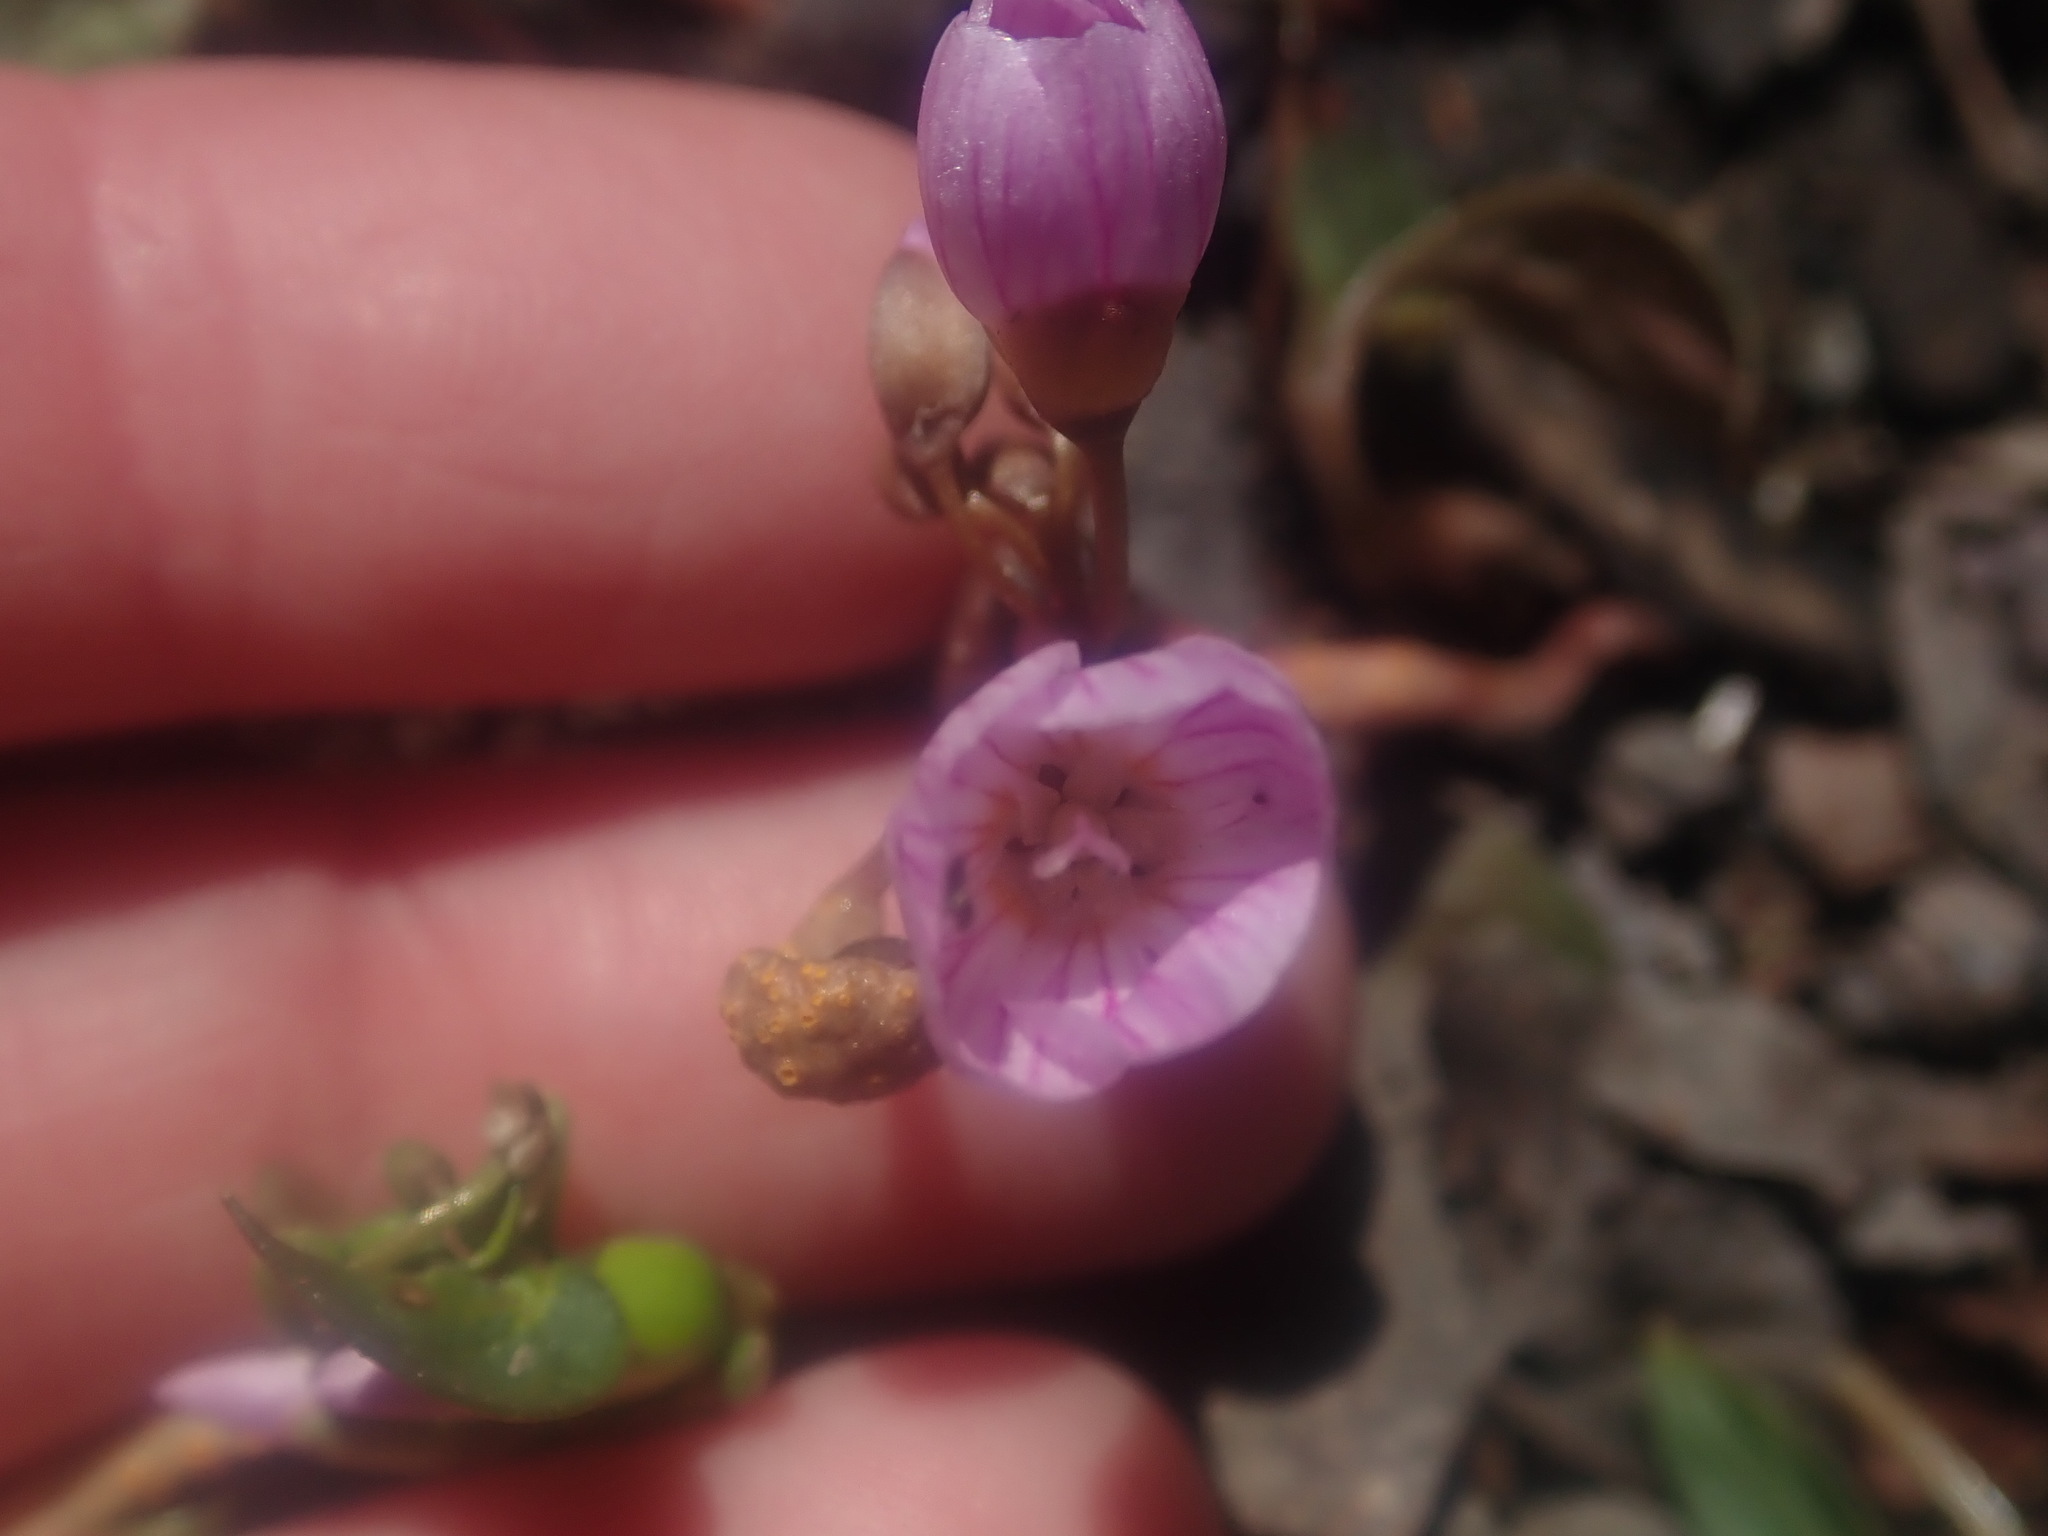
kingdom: Plantae
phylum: Tracheophyta
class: Magnoliopsida
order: Caryophyllales
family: Montiaceae
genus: Claytonia
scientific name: Claytonia caroliniana
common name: Carolina spring beauty
